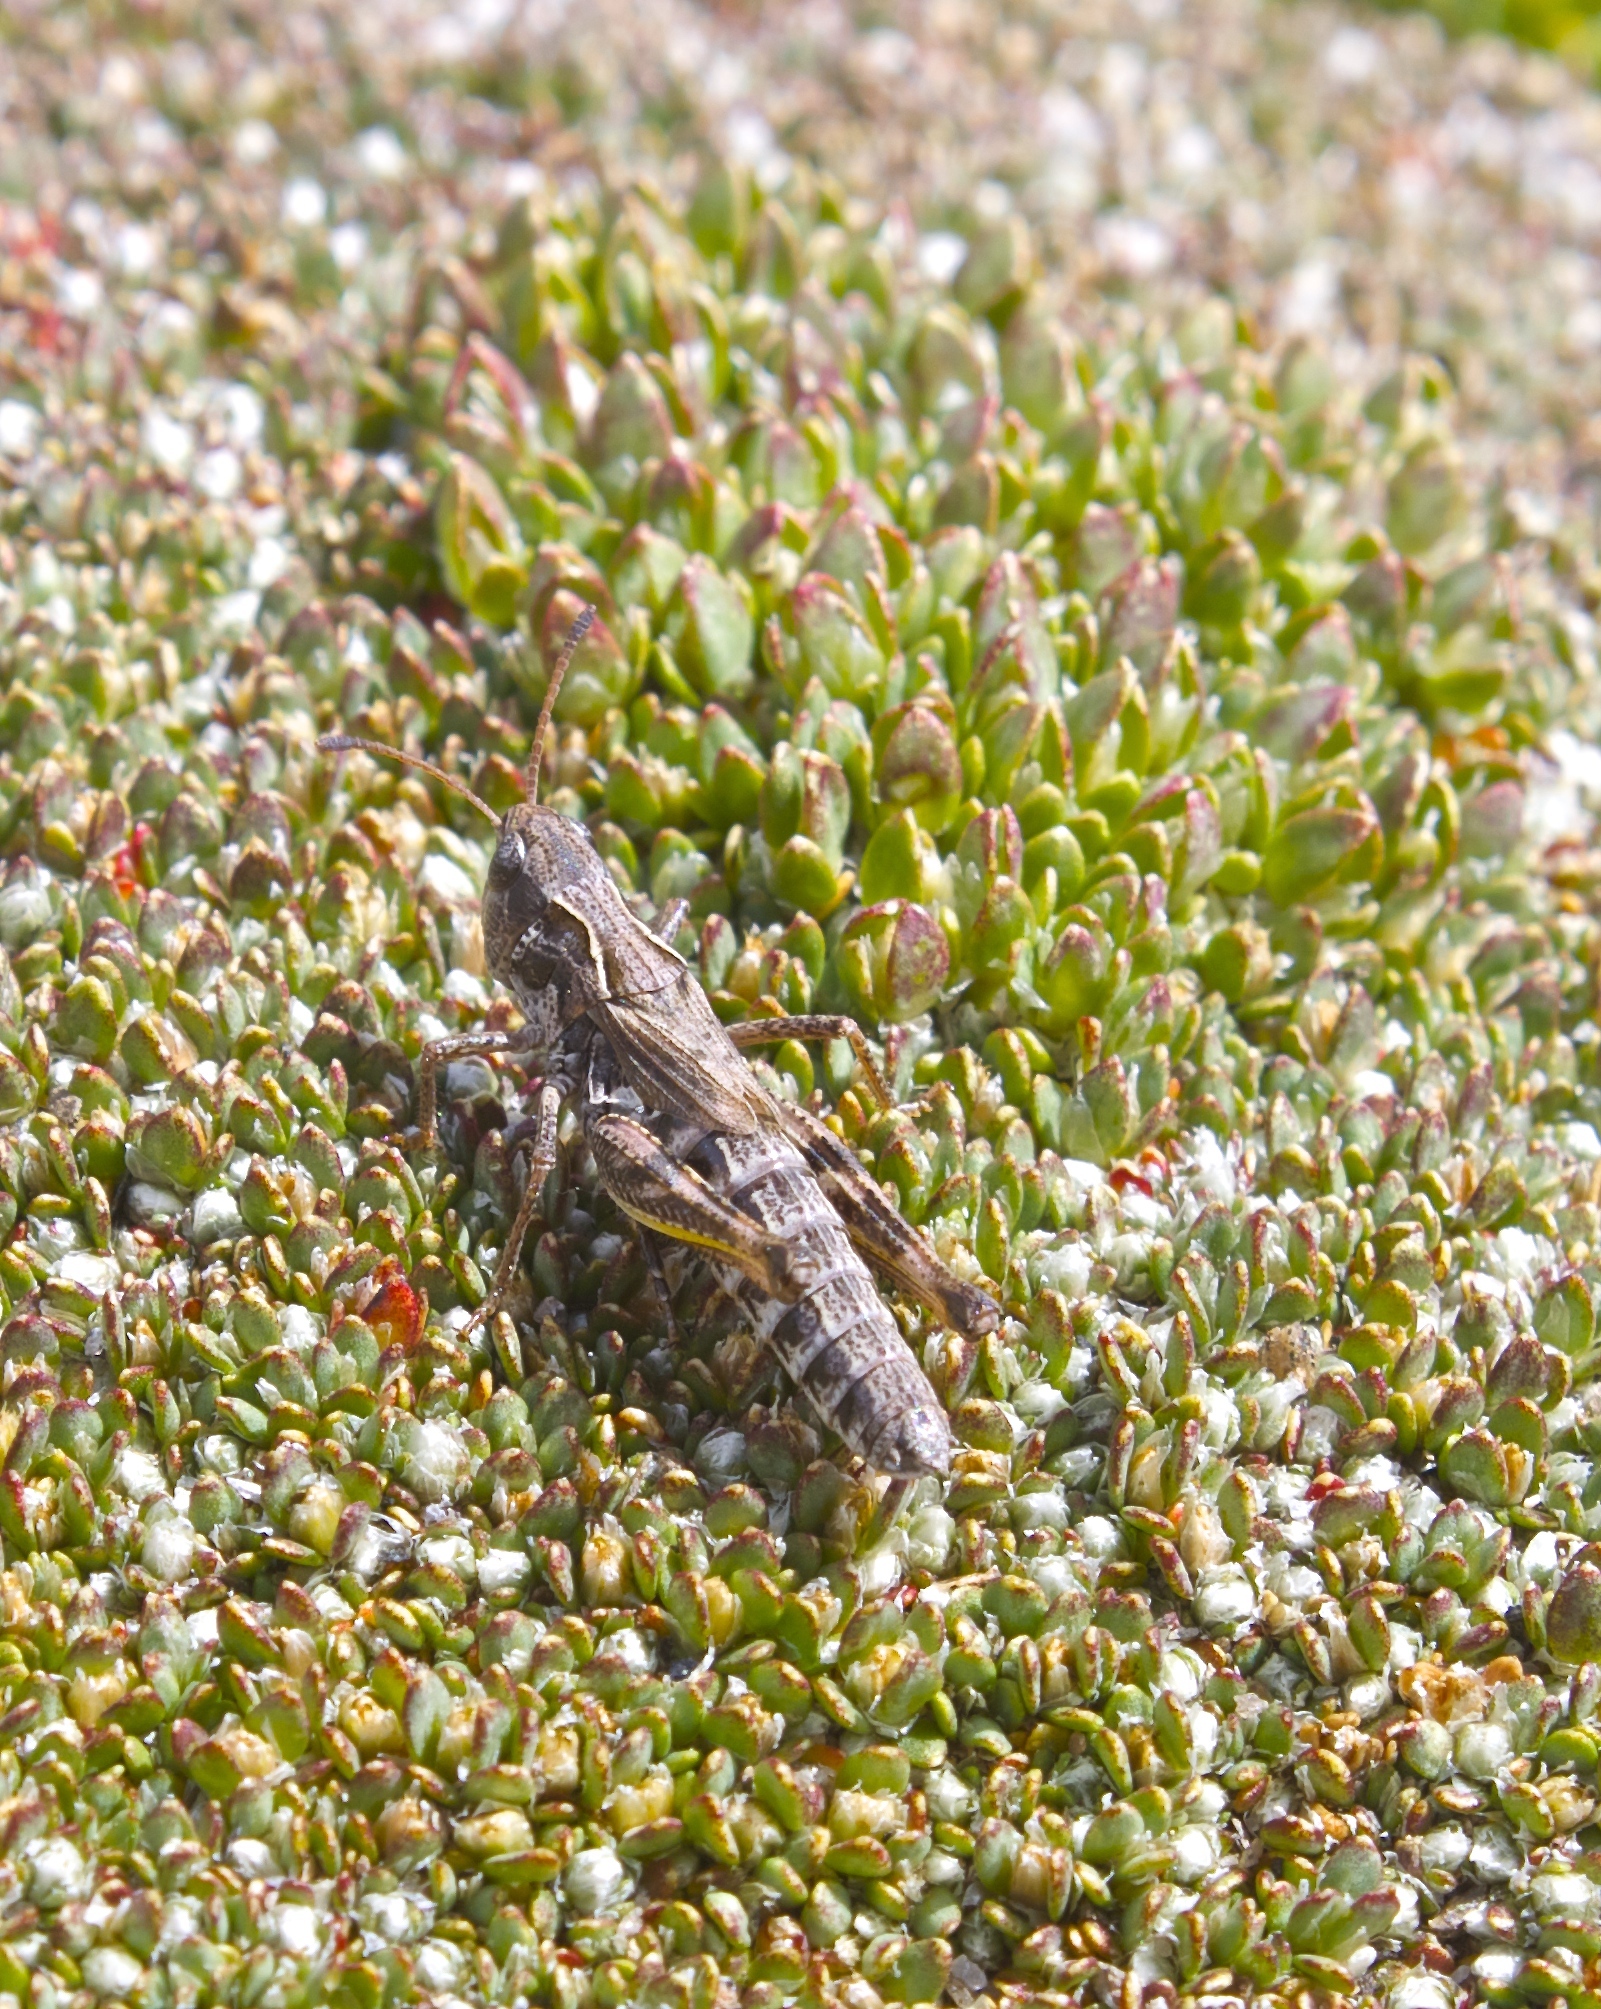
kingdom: Animalia
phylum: Arthropoda
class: Insecta
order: Orthoptera
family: Acrididae
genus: Aeropedellus
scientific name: Aeropedellus clavatus
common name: Clubhorned grasshopper
